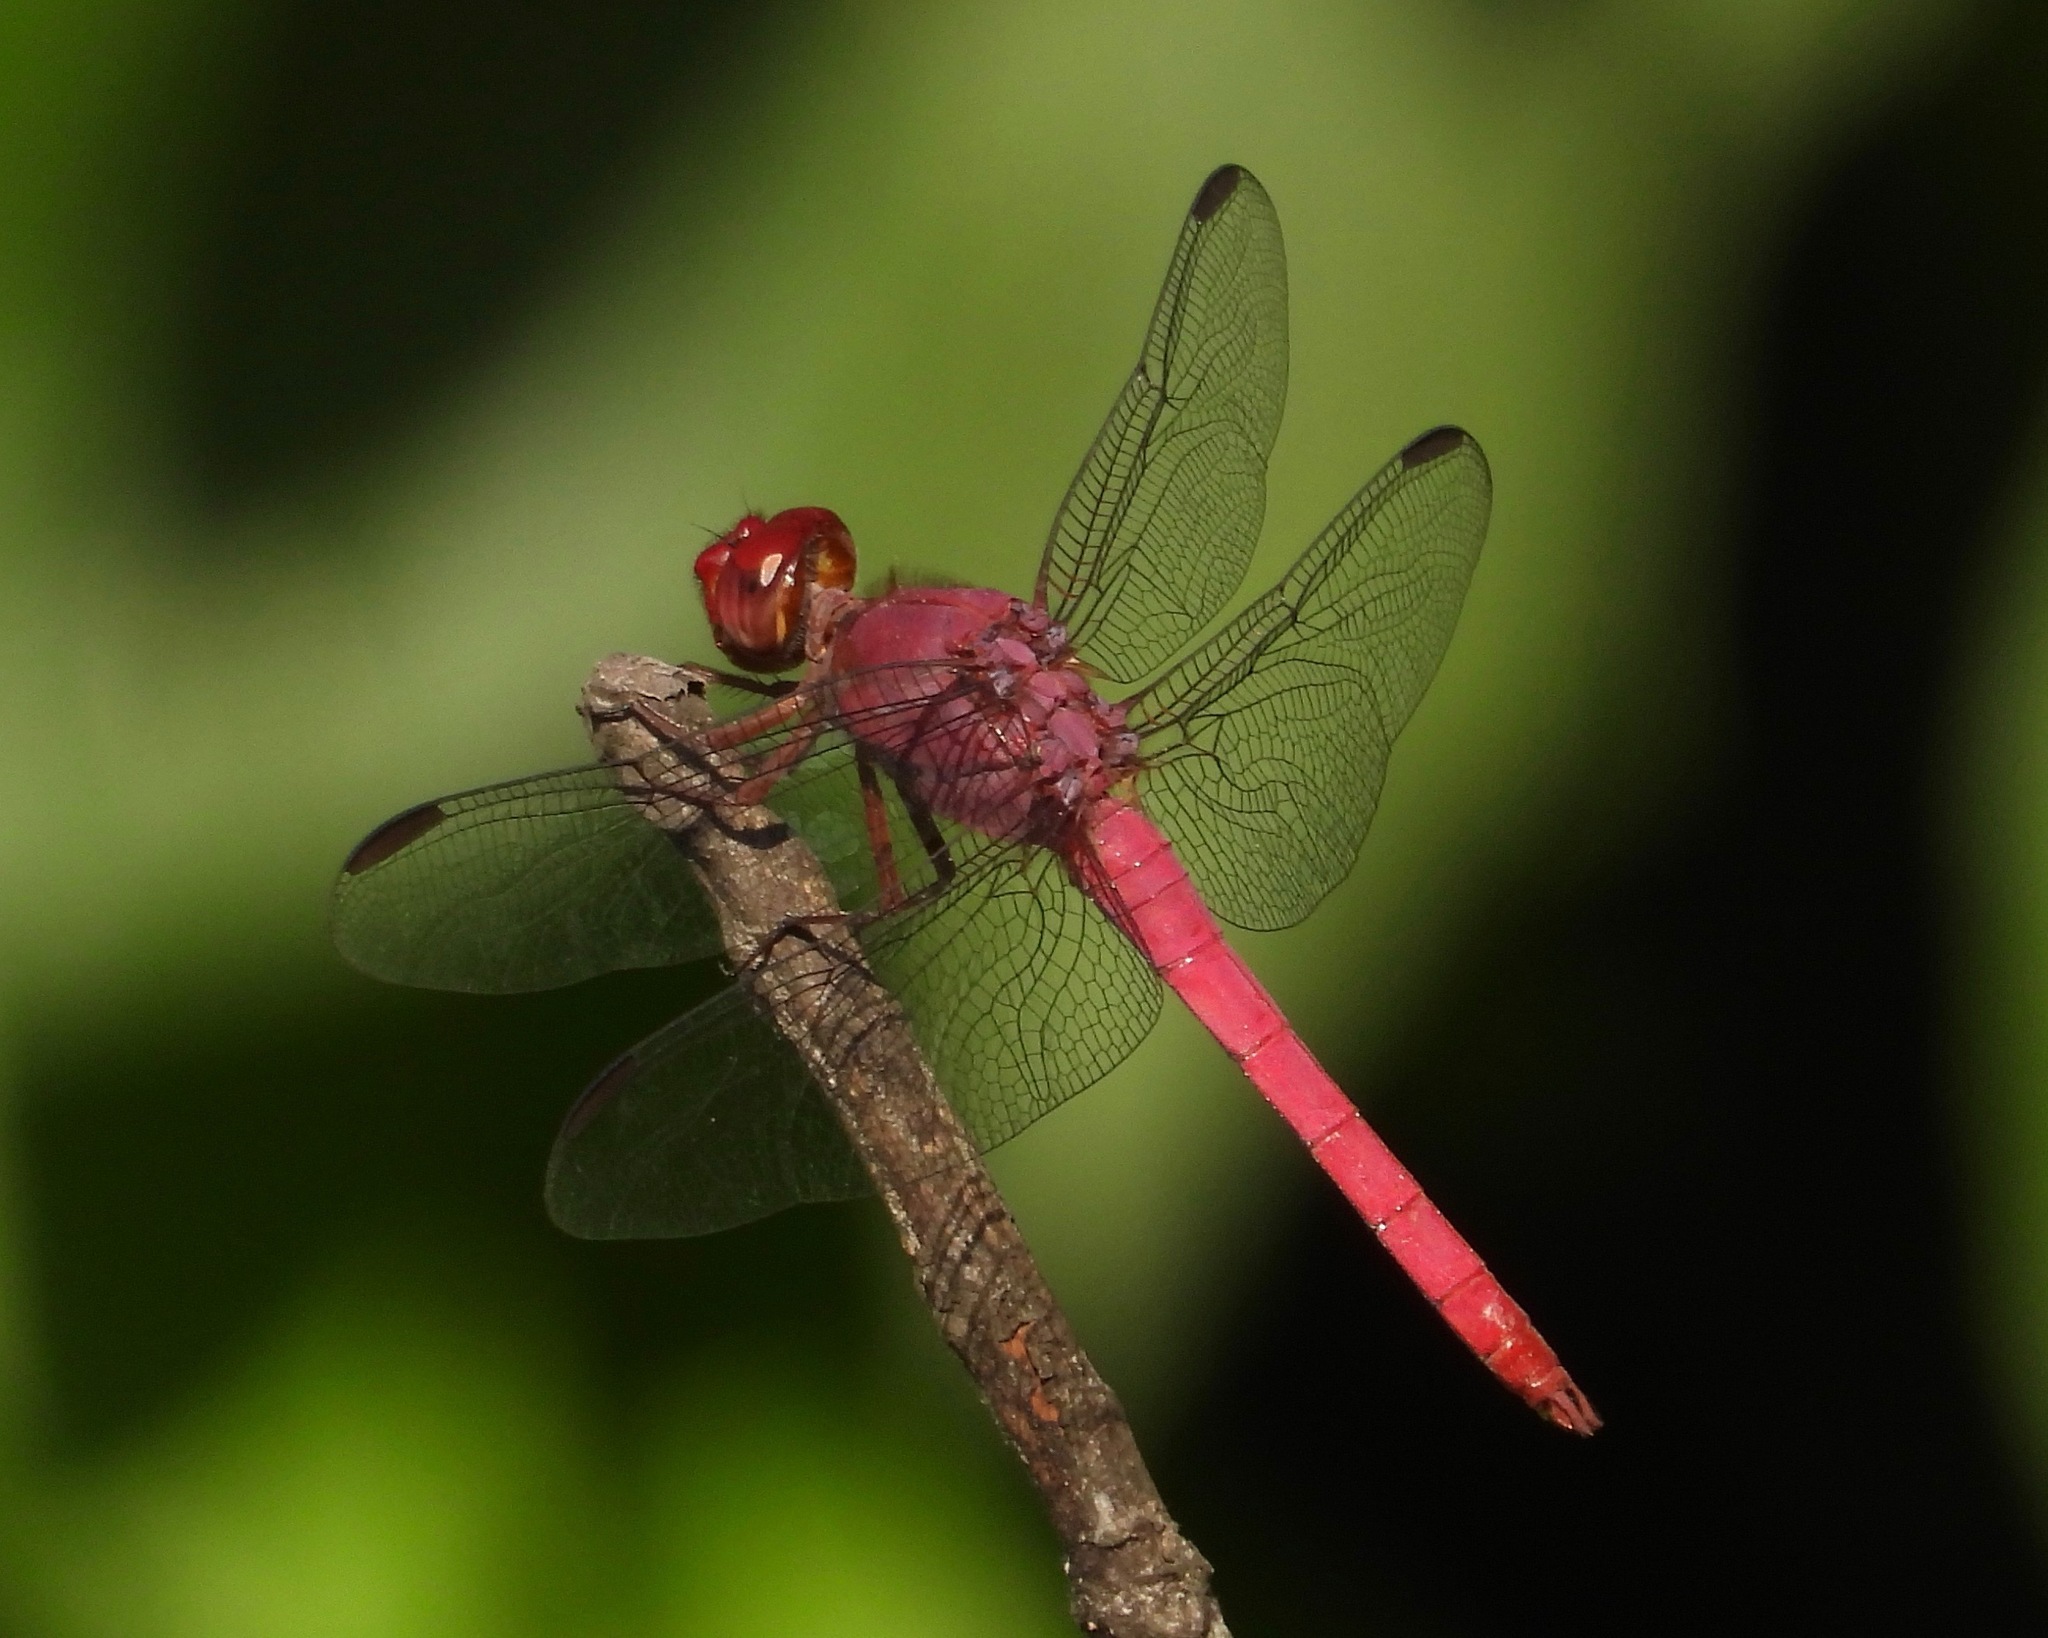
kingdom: Animalia
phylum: Arthropoda
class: Insecta
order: Odonata
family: Libellulidae
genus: Orthemis
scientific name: Orthemis discolor
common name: Carmine skimmer
